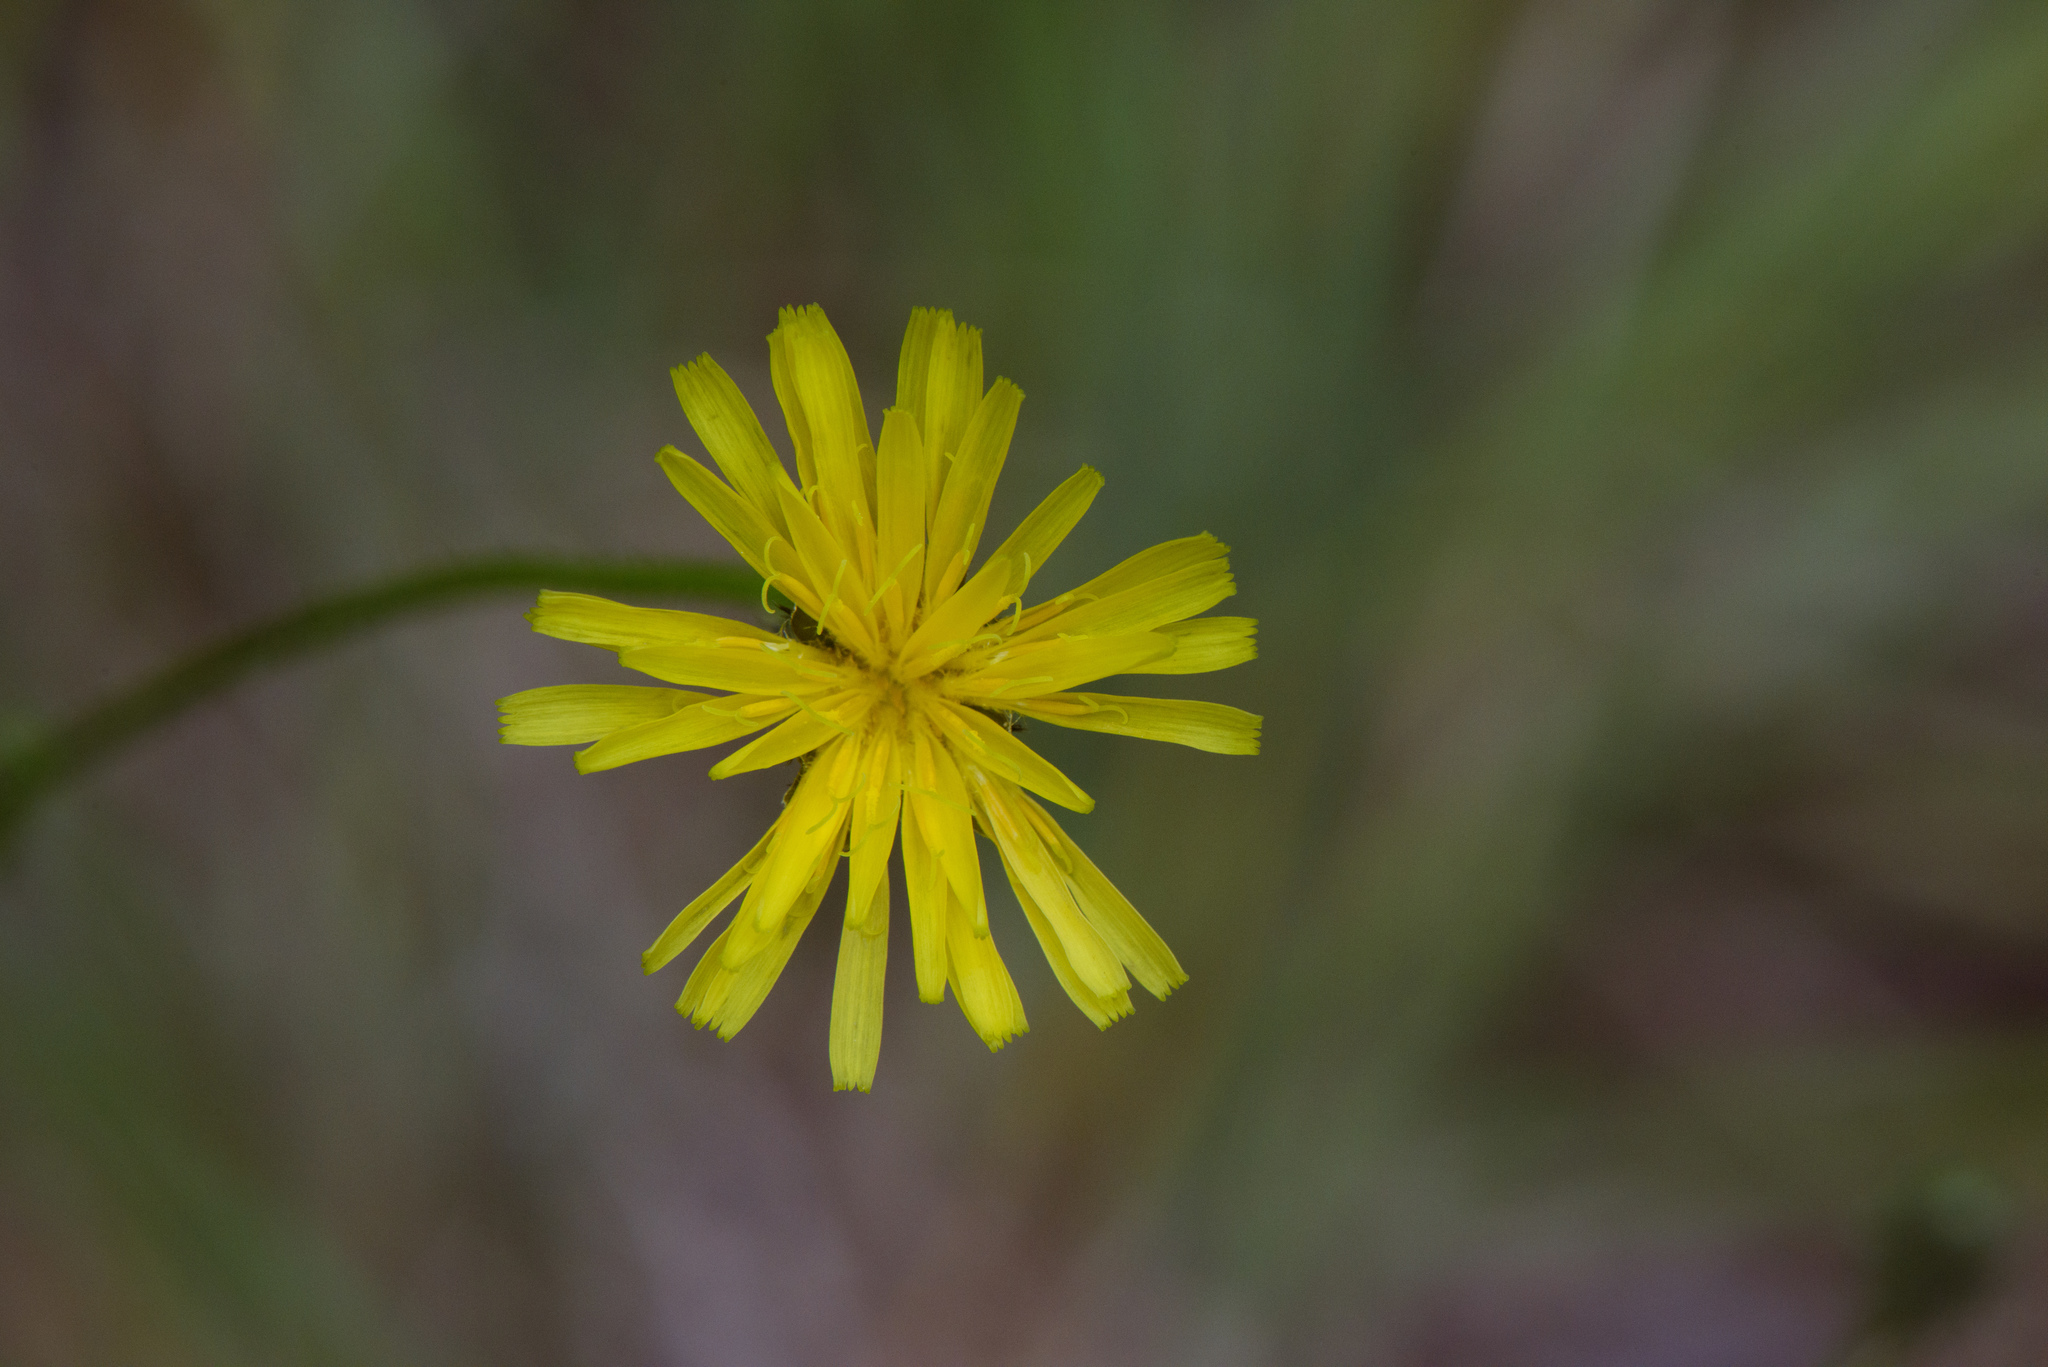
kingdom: Plantae
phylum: Tracheophyta
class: Magnoliopsida
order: Asterales
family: Asteraceae
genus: Picris
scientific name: Picris angustifolia
